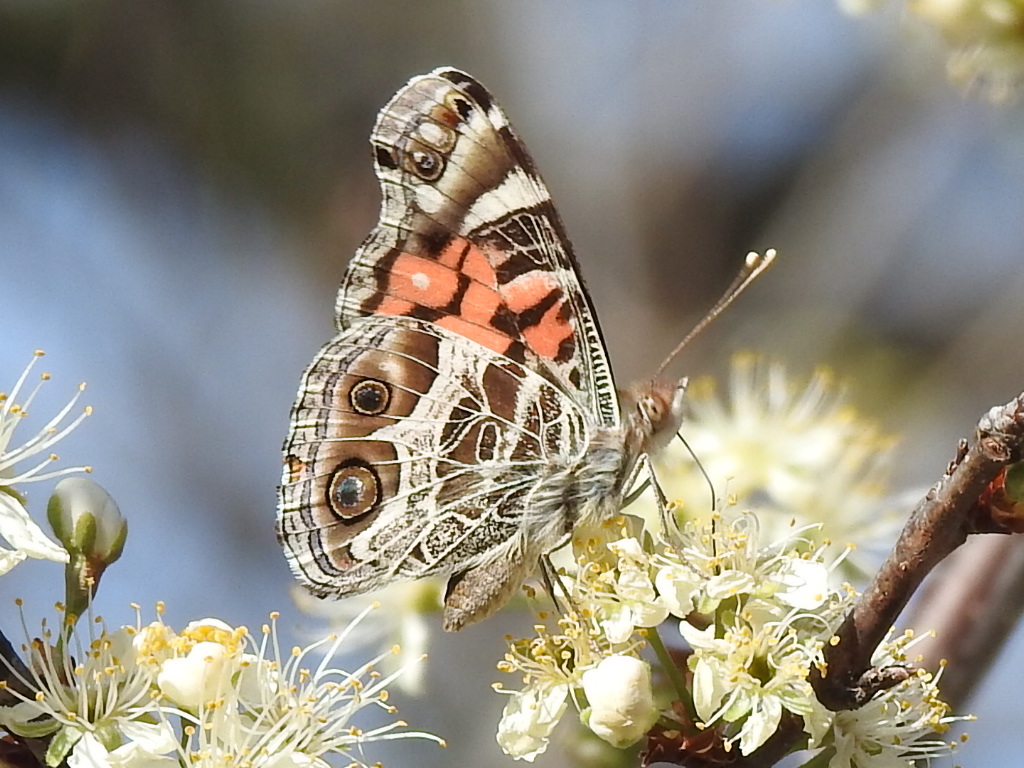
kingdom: Animalia
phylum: Arthropoda
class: Insecta
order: Lepidoptera
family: Nymphalidae
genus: Vanessa
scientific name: Vanessa virginiensis
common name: American lady
